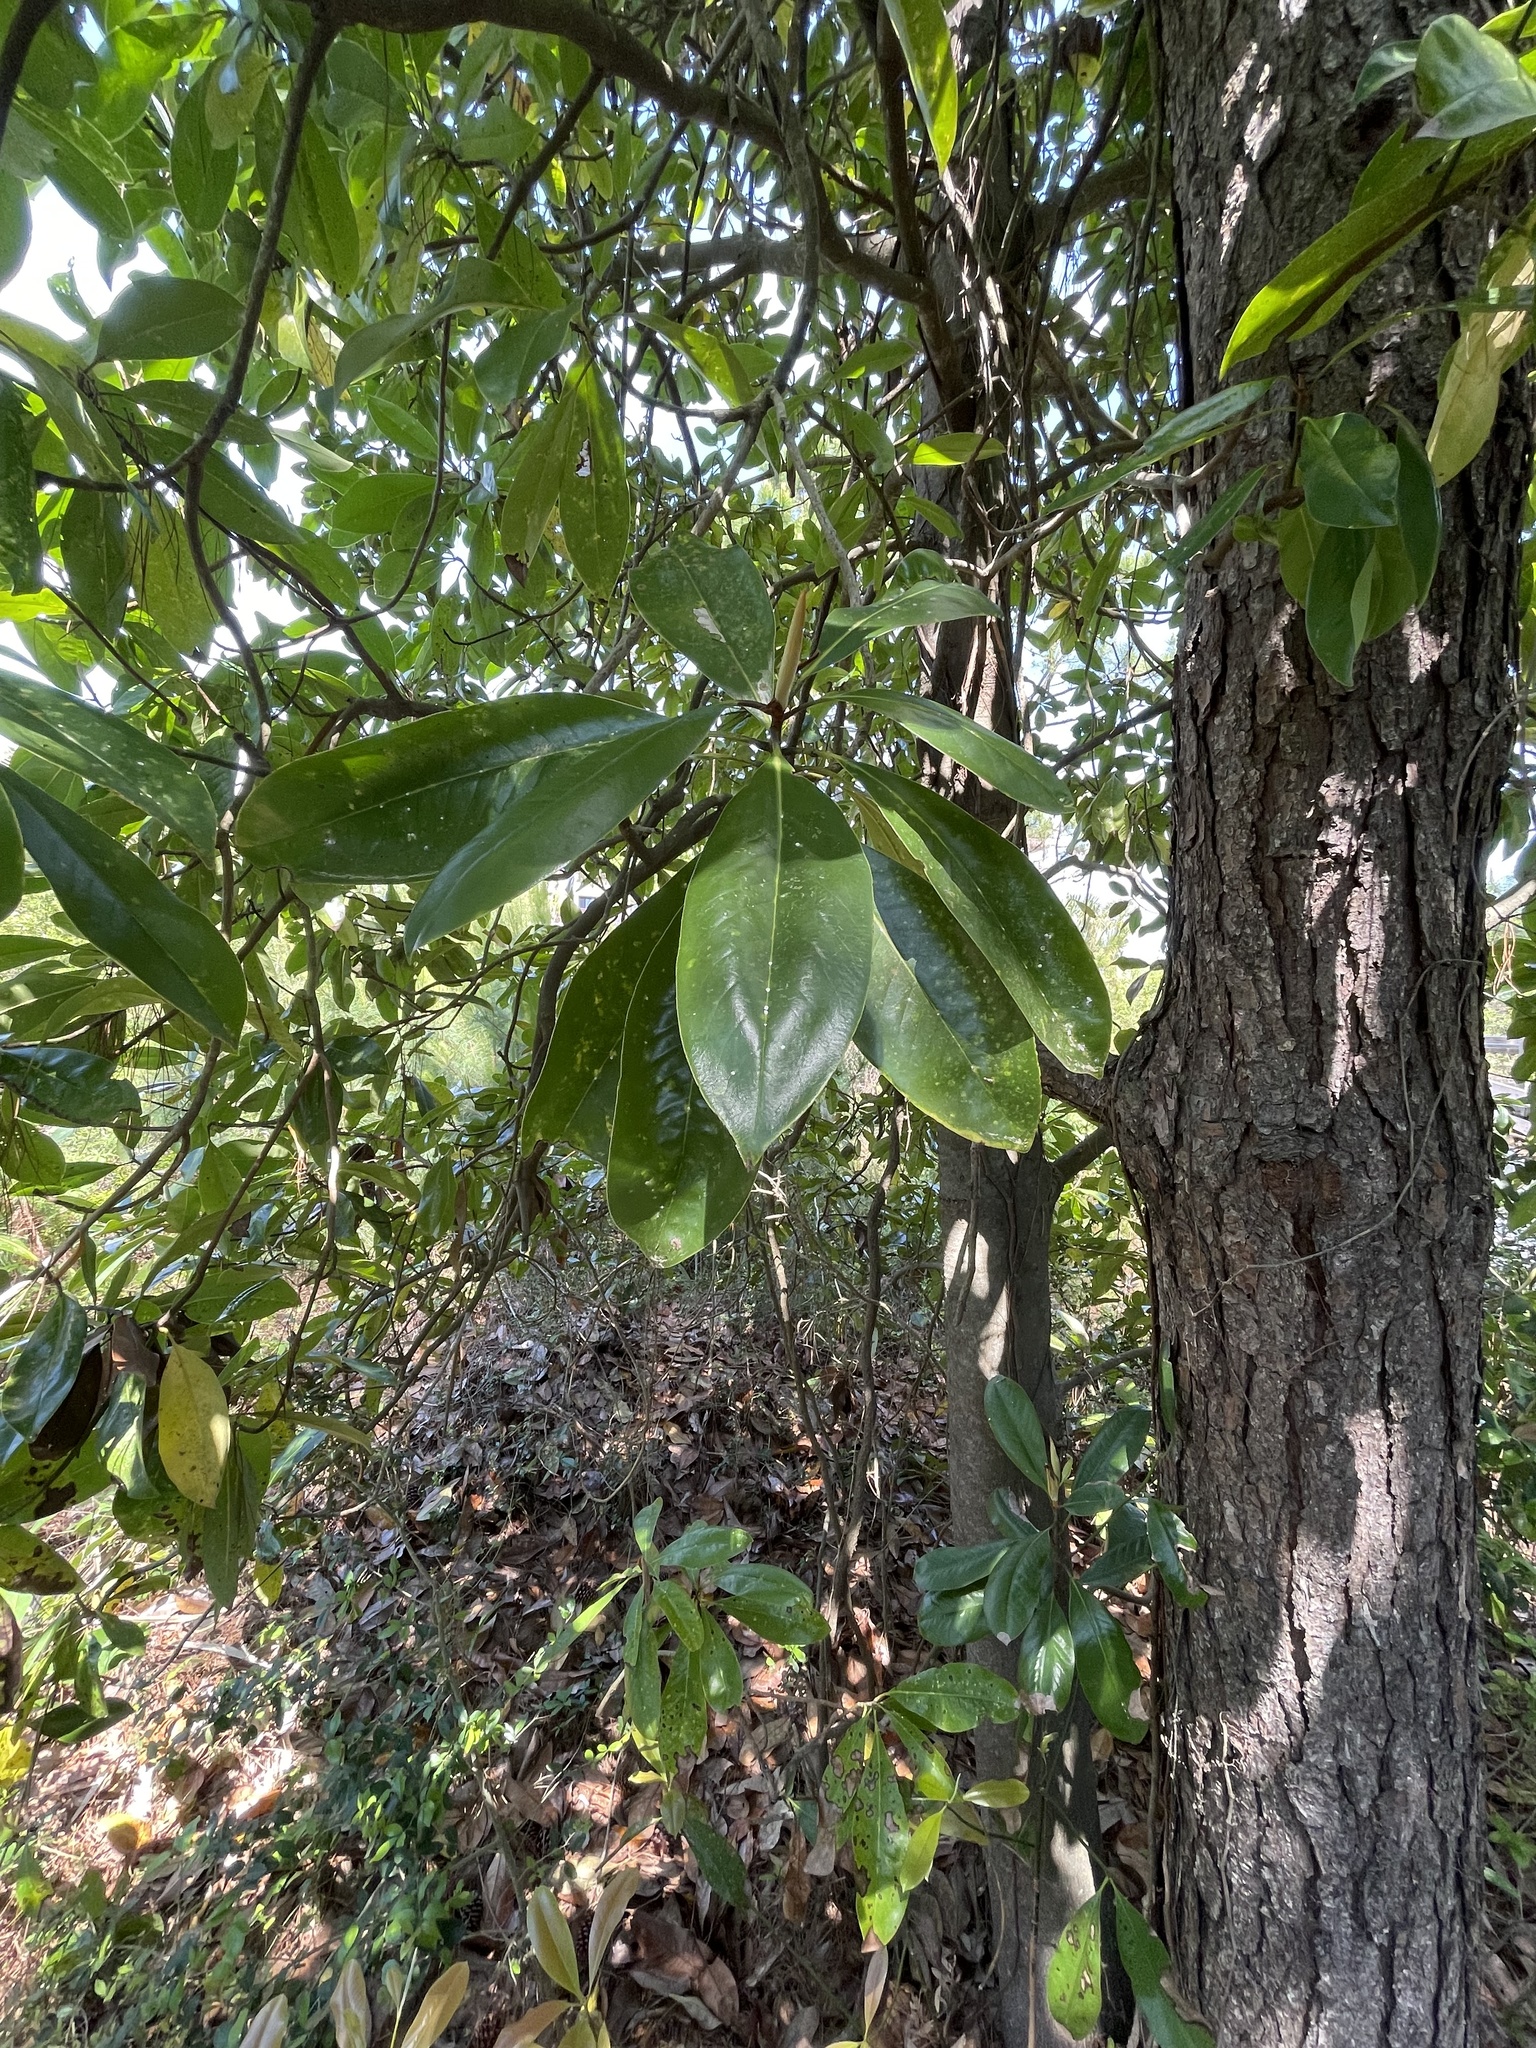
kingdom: Plantae
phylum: Tracheophyta
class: Magnoliopsida
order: Magnoliales
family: Magnoliaceae
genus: Magnolia
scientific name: Magnolia grandiflora
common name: Southern magnolia
